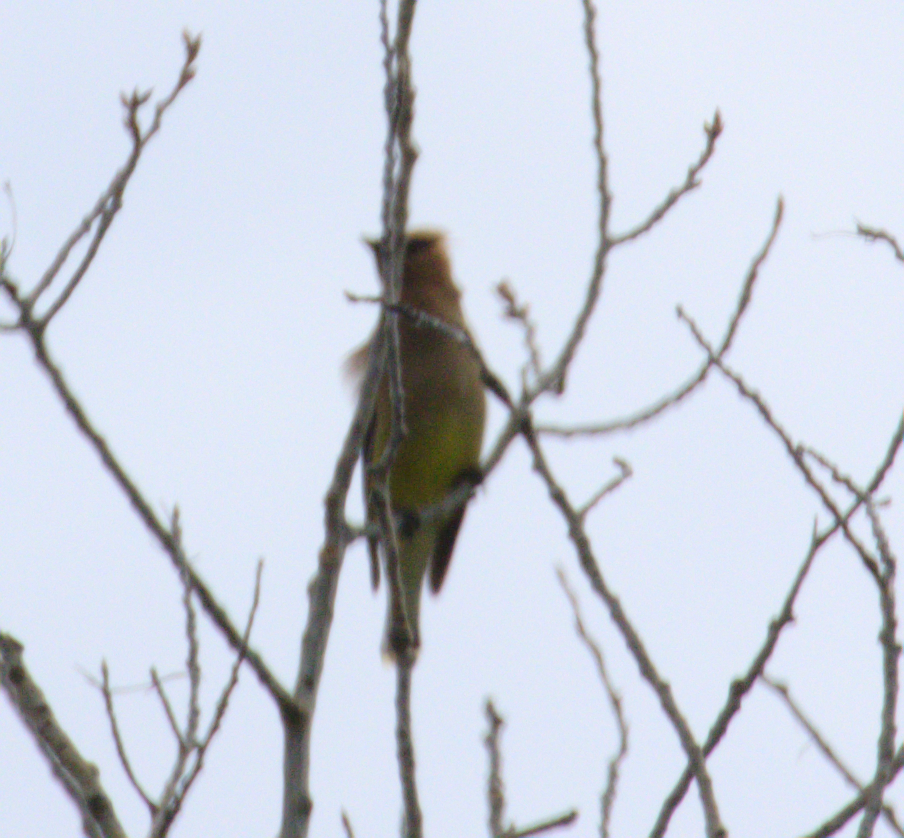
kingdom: Animalia
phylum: Chordata
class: Aves
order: Passeriformes
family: Bombycillidae
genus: Bombycilla
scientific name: Bombycilla cedrorum
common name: Cedar waxwing
